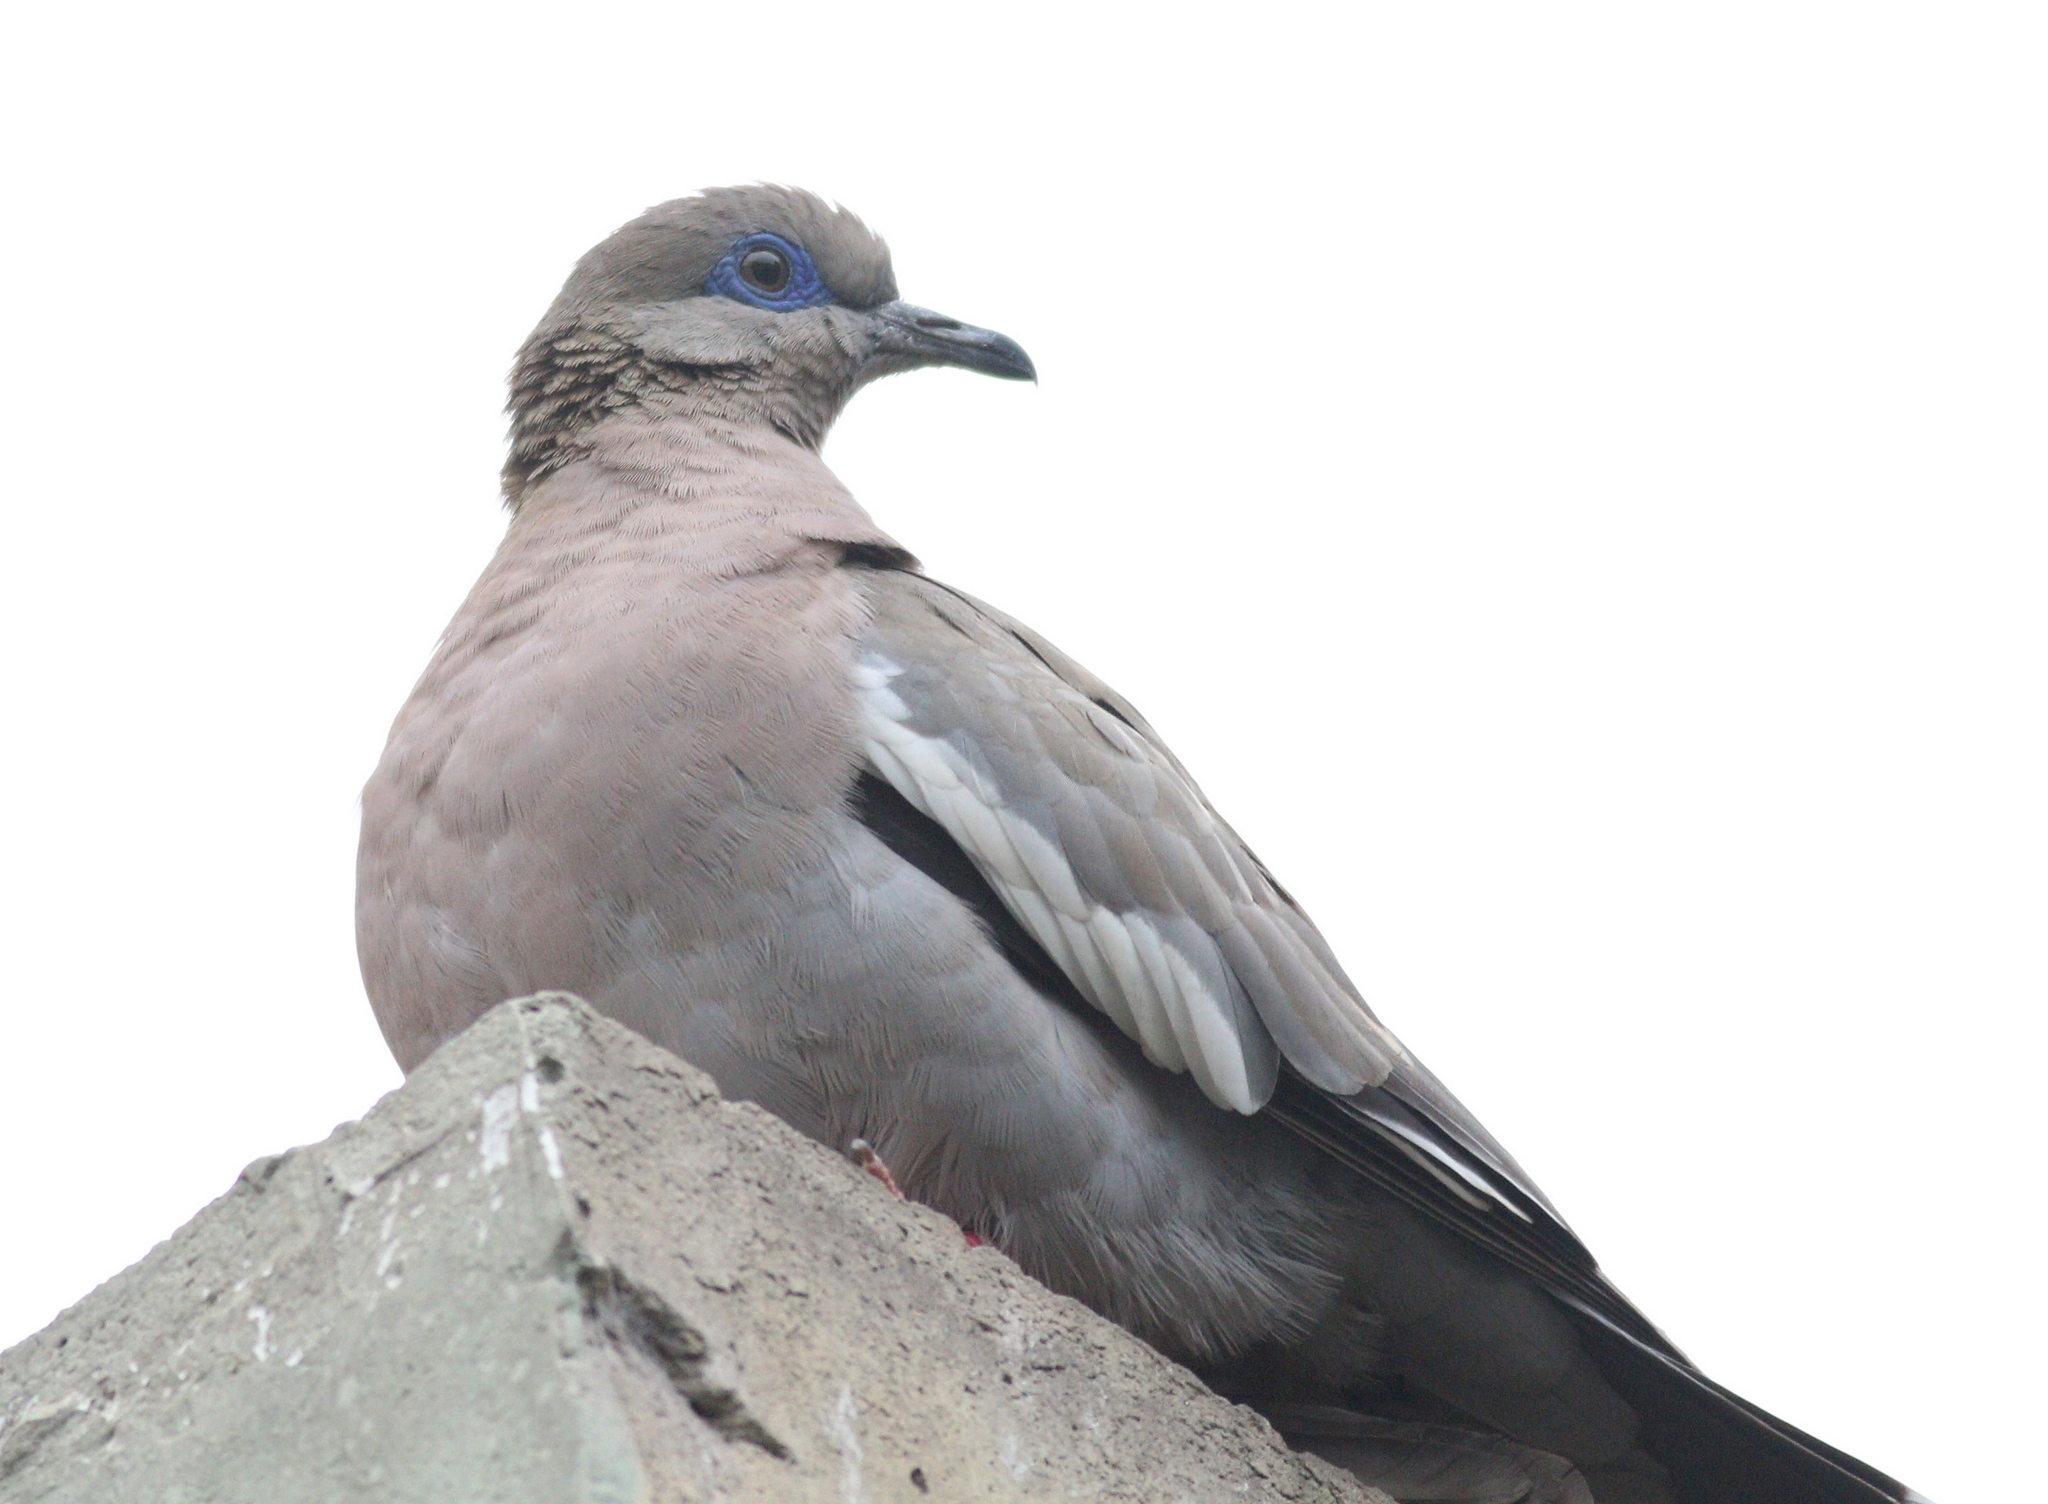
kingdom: Animalia
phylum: Chordata
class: Aves
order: Columbiformes
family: Columbidae
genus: Zenaida
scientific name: Zenaida meloda
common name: West peruvian dove
